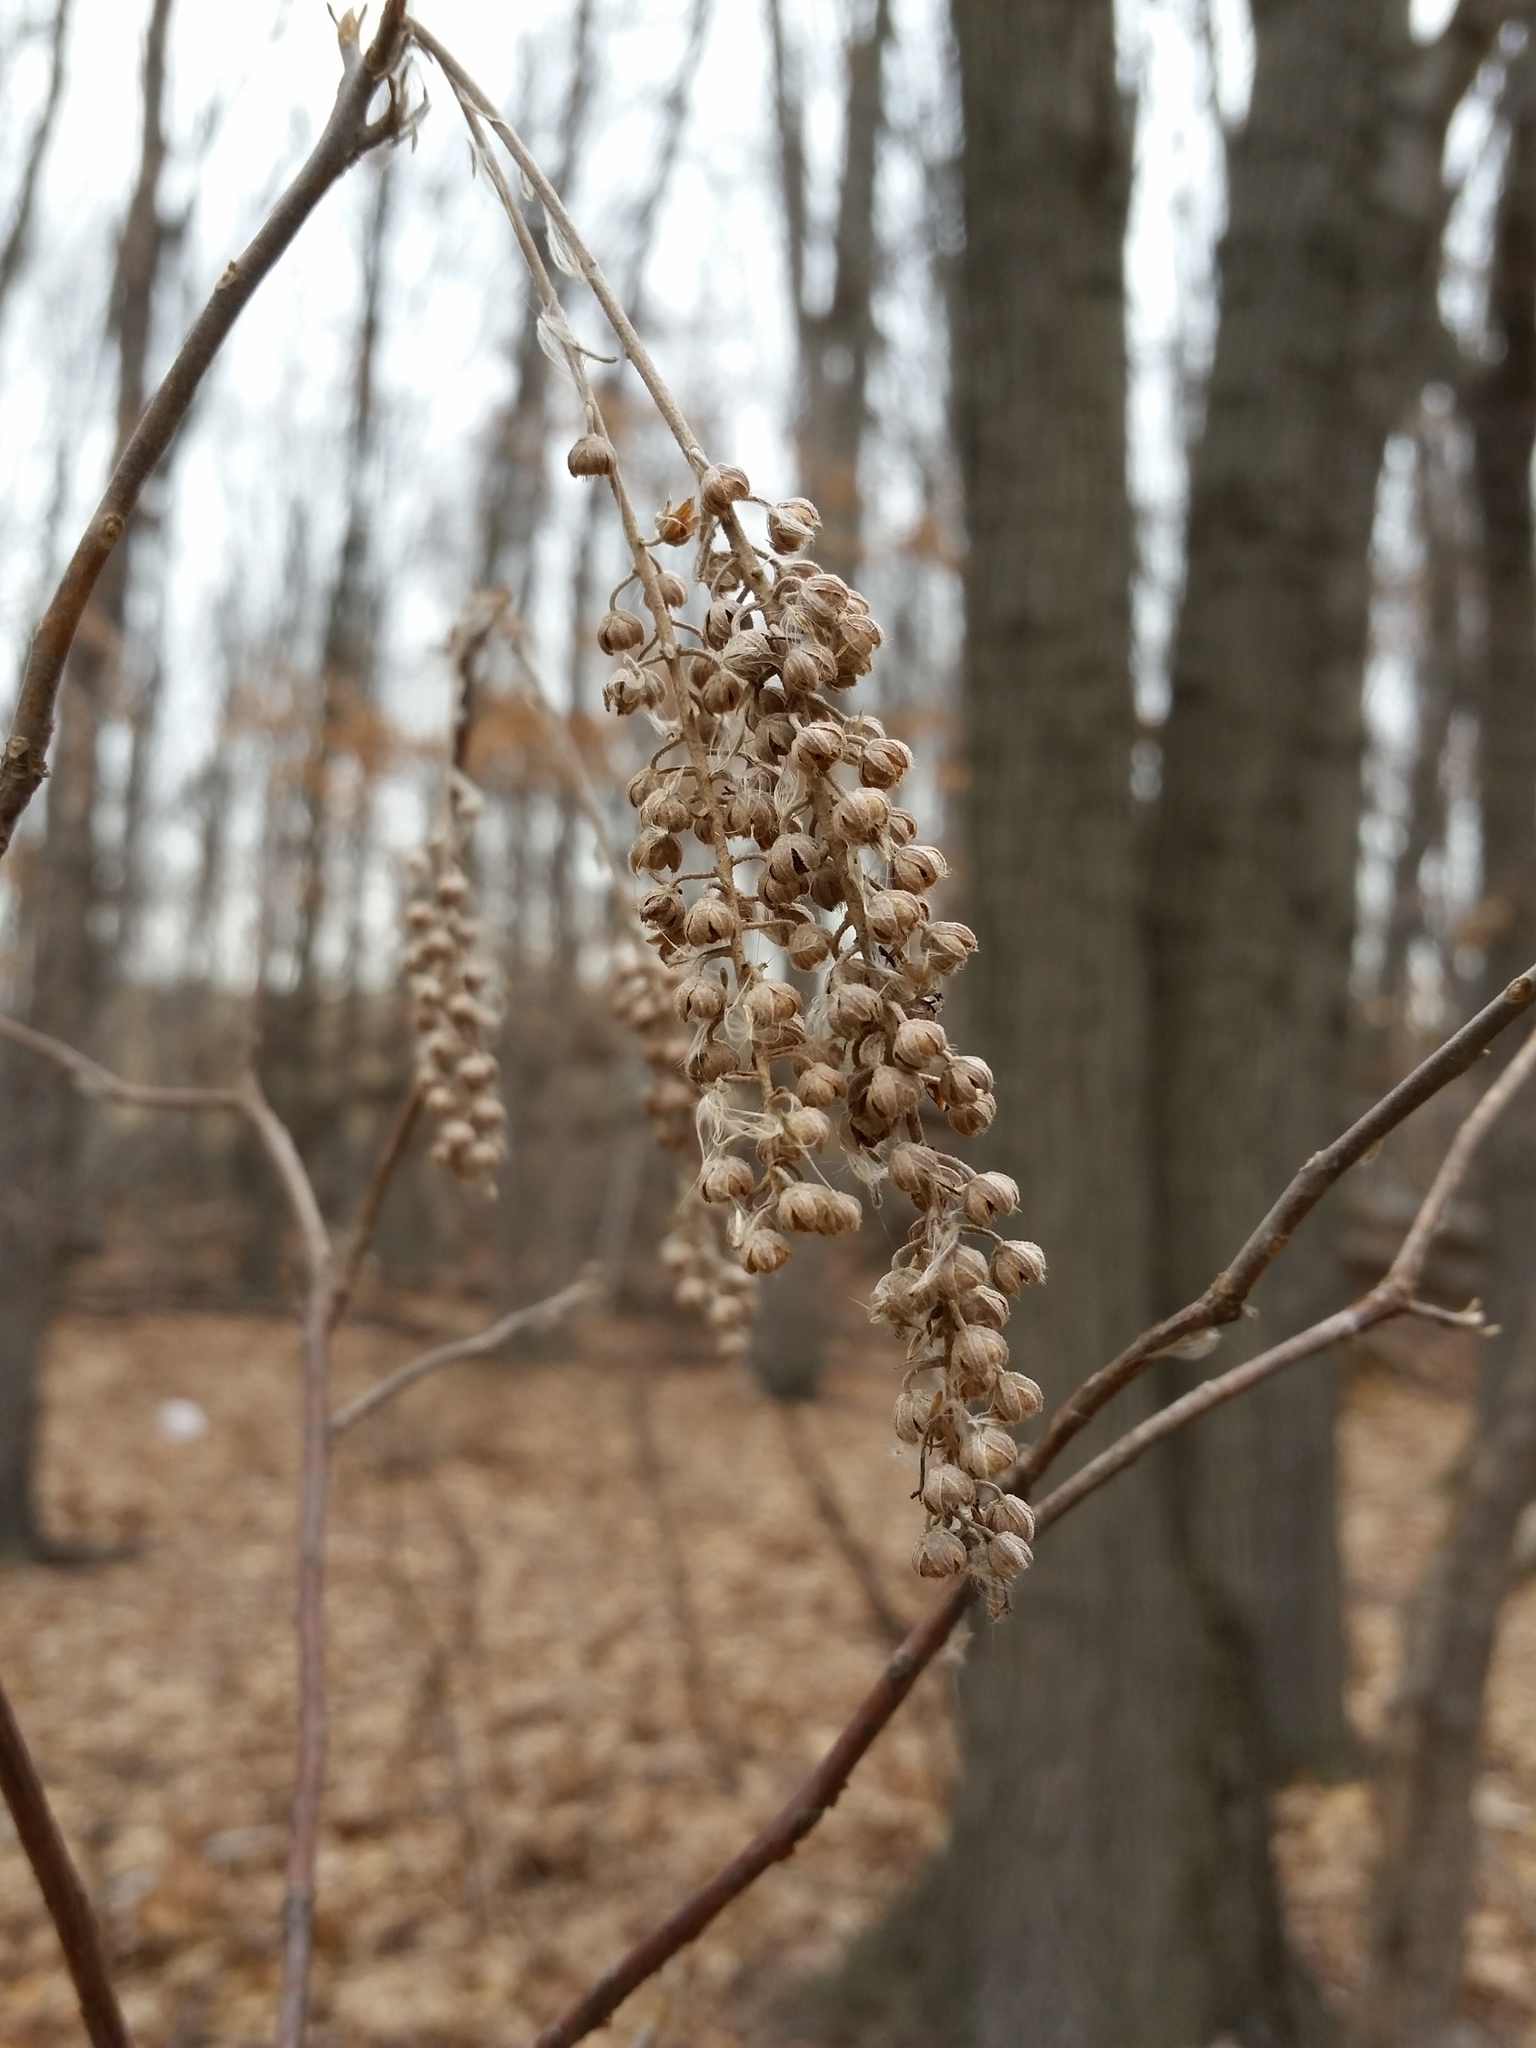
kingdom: Plantae
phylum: Tracheophyta
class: Magnoliopsida
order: Ericales
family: Clethraceae
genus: Clethra
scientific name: Clethra alnifolia
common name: Sweet pepperbush
